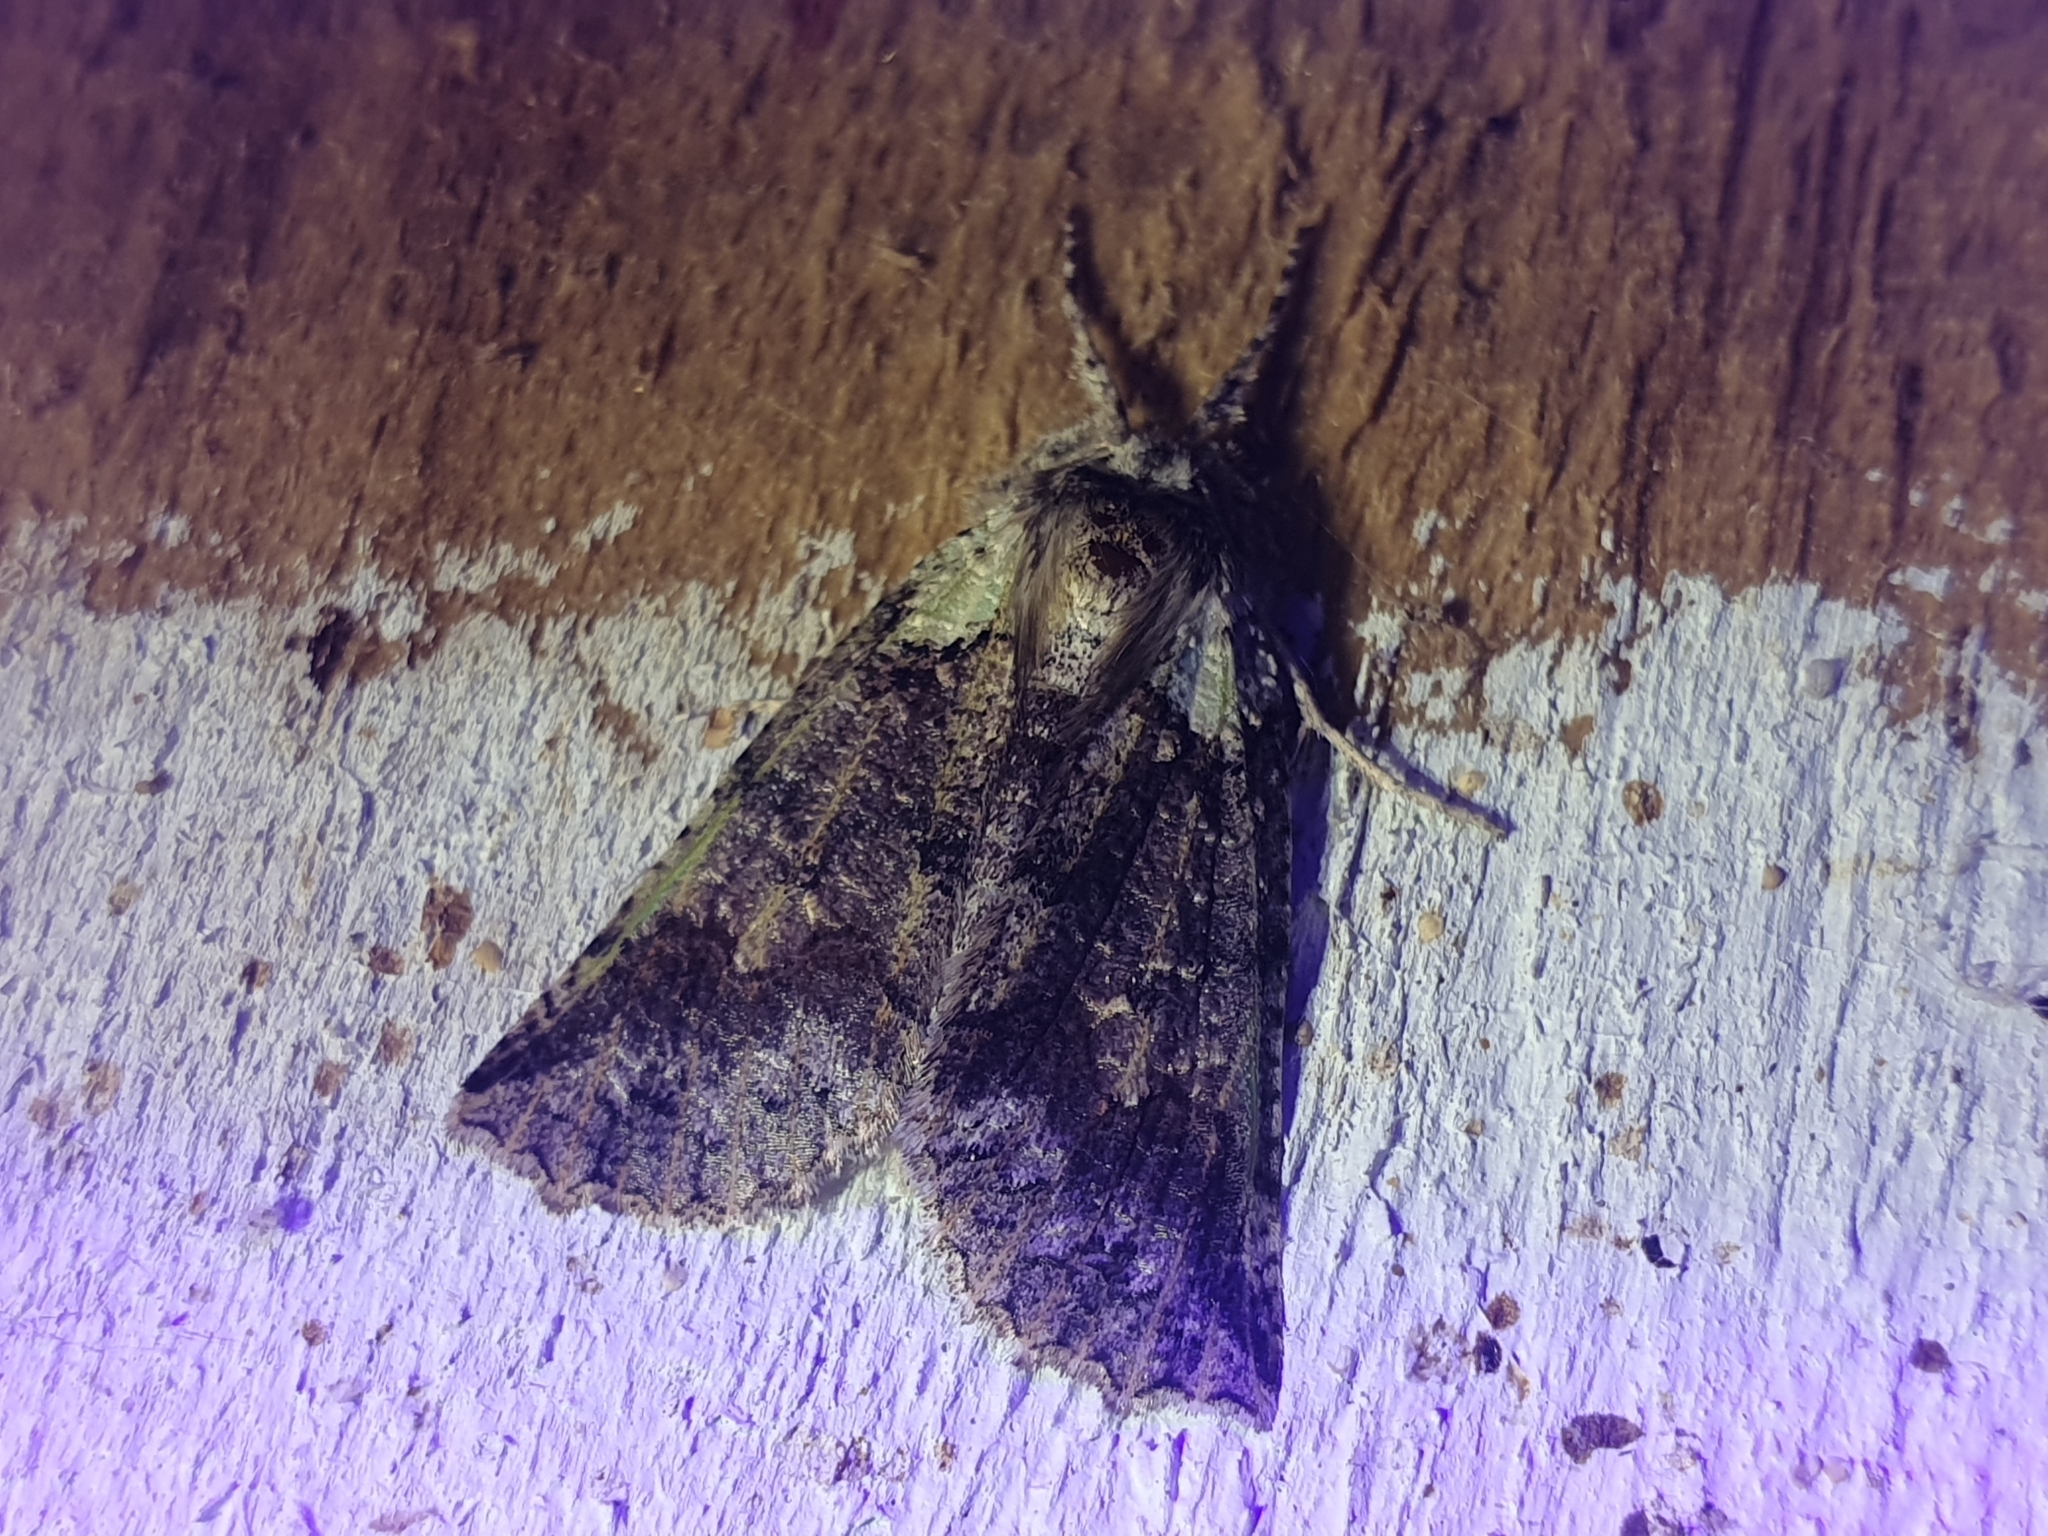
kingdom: Animalia
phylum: Arthropoda
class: Insecta
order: Lepidoptera
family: Geometridae
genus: Declana
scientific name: Declana floccosa
